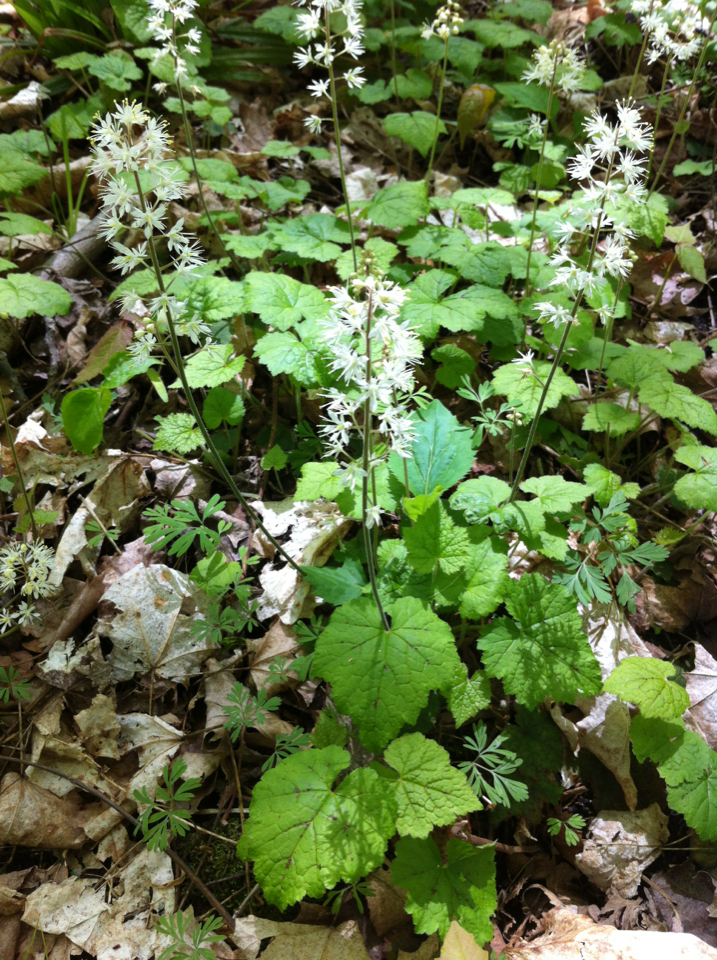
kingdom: Plantae
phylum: Tracheophyta
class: Magnoliopsida
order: Saxifragales
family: Saxifragaceae
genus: Tiarella
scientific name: Tiarella stolonifera
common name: Stoloniferous foamflower
